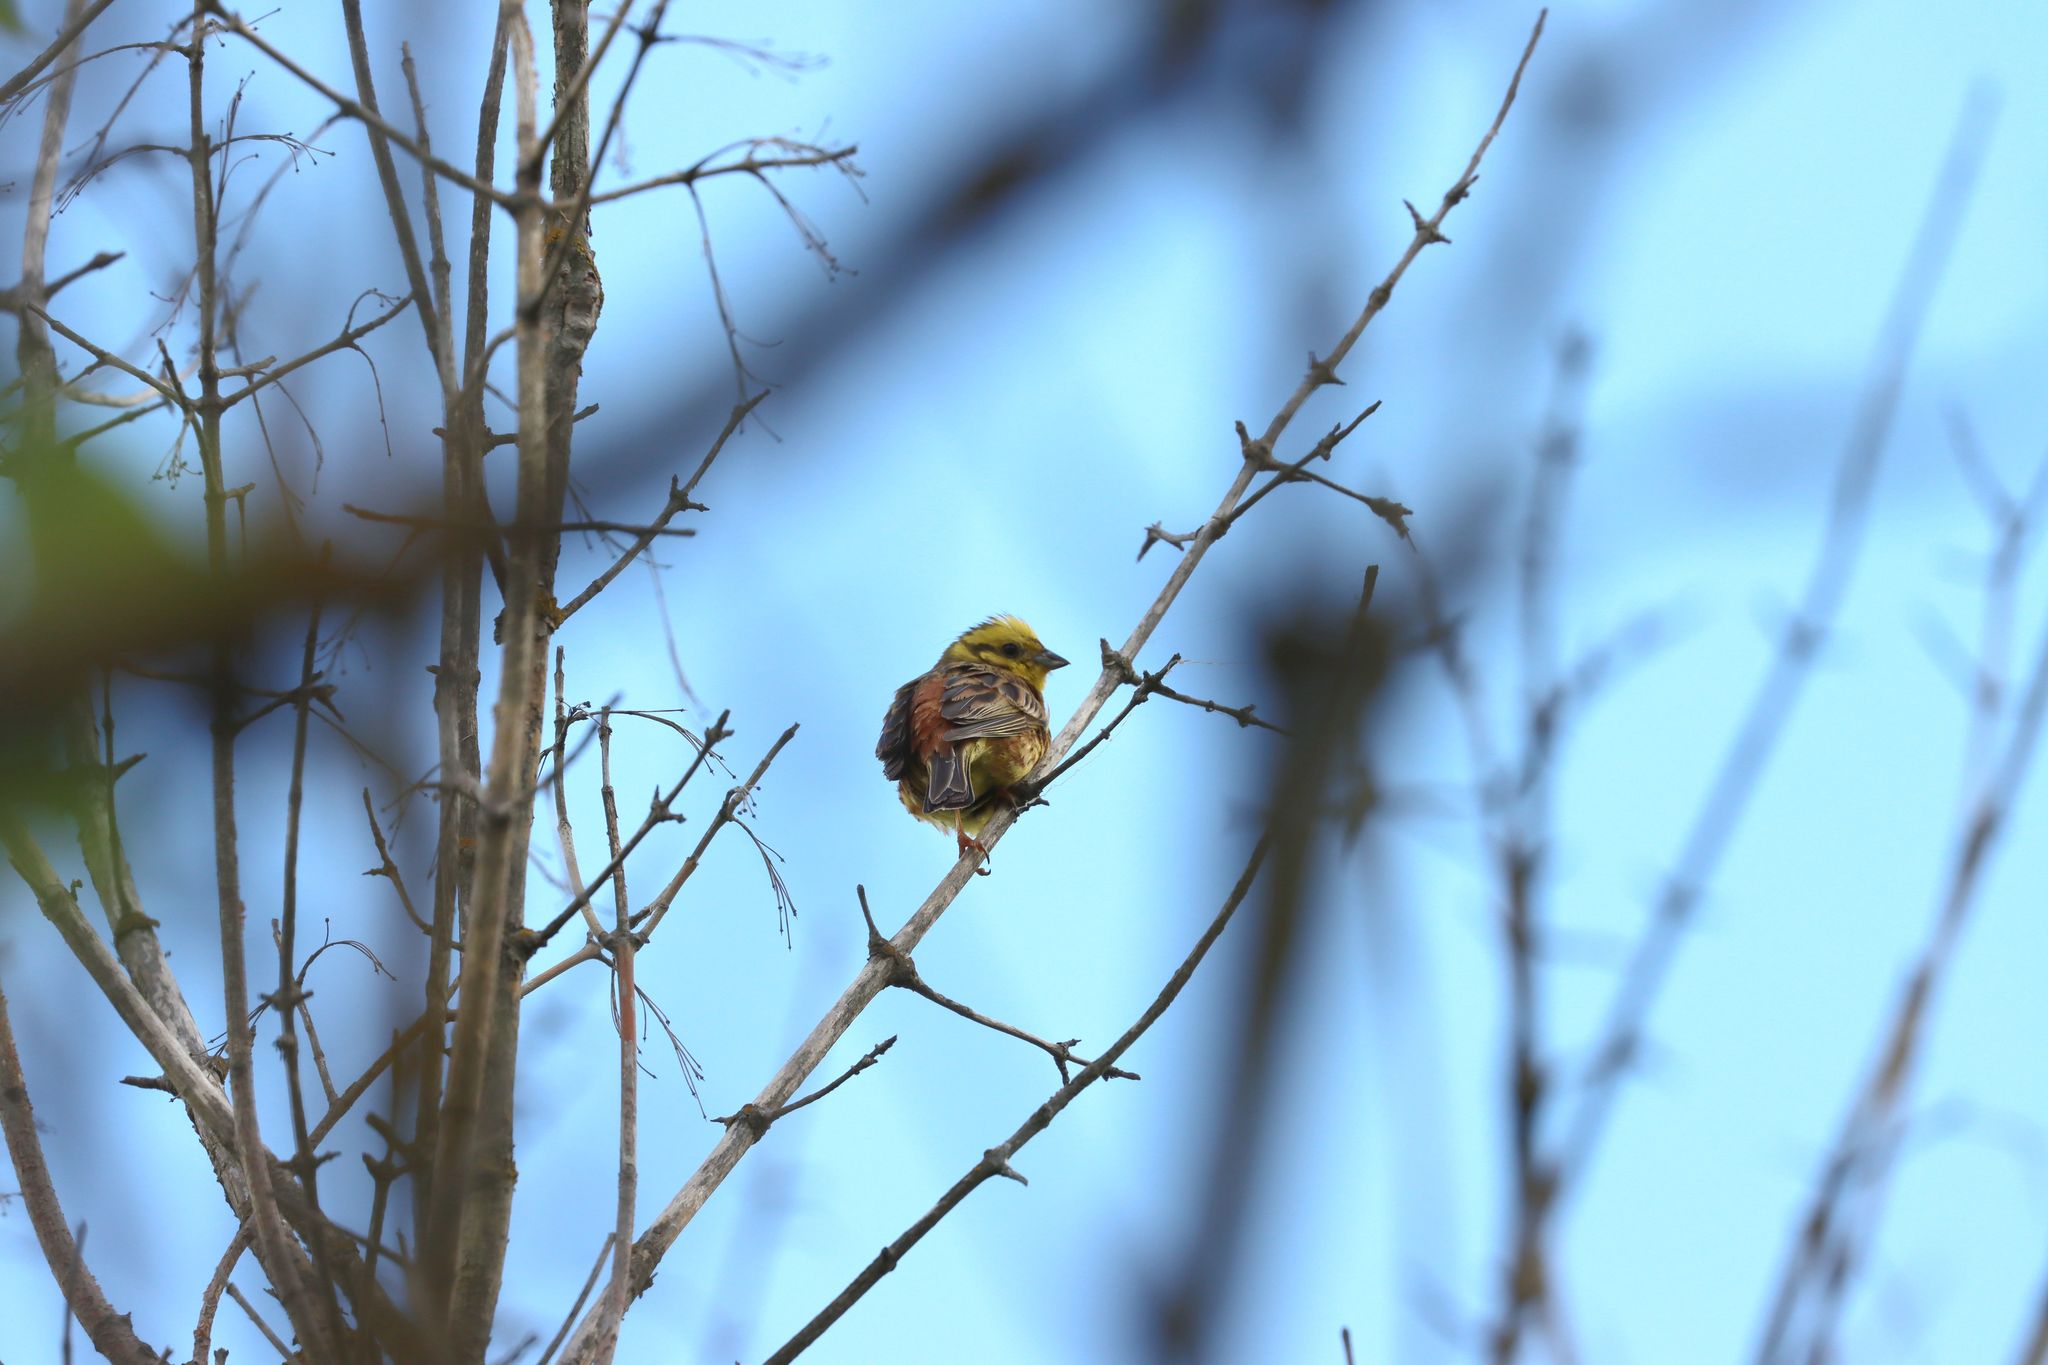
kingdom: Animalia
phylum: Chordata
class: Aves
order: Passeriformes
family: Emberizidae
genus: Emberiza
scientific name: Emberiza citrinella
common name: Yellowhammer
